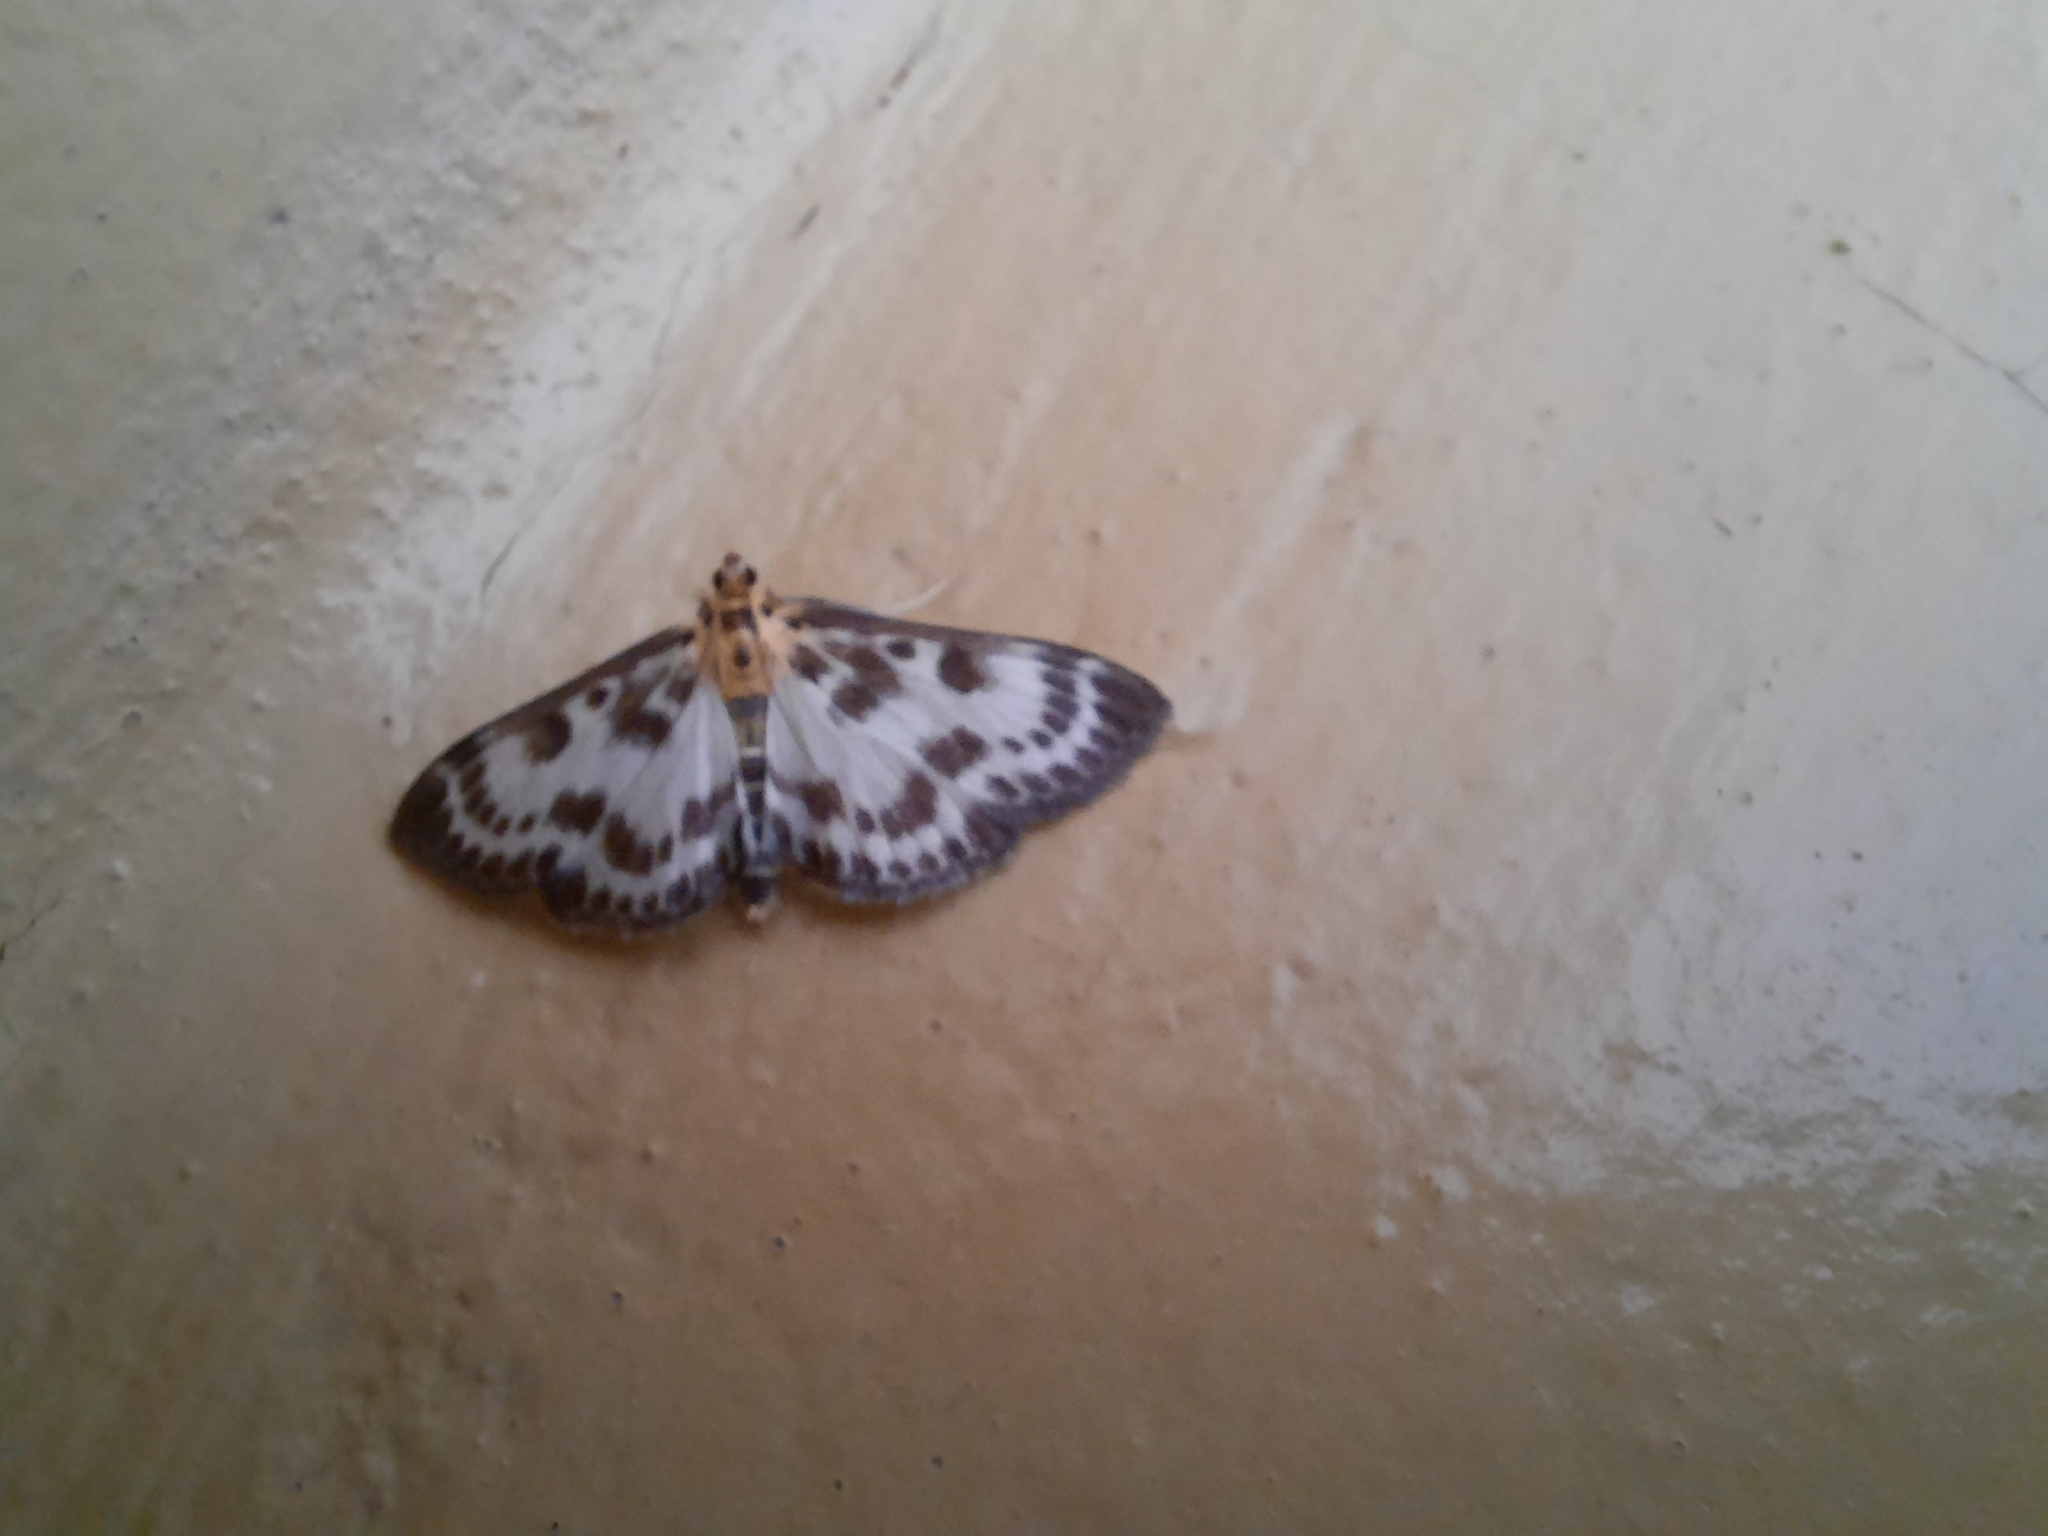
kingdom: Animalia
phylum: Arthropoda
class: Insecta
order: Lepidoptera
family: Crambidae
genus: Anania
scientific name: Anania hortulata
